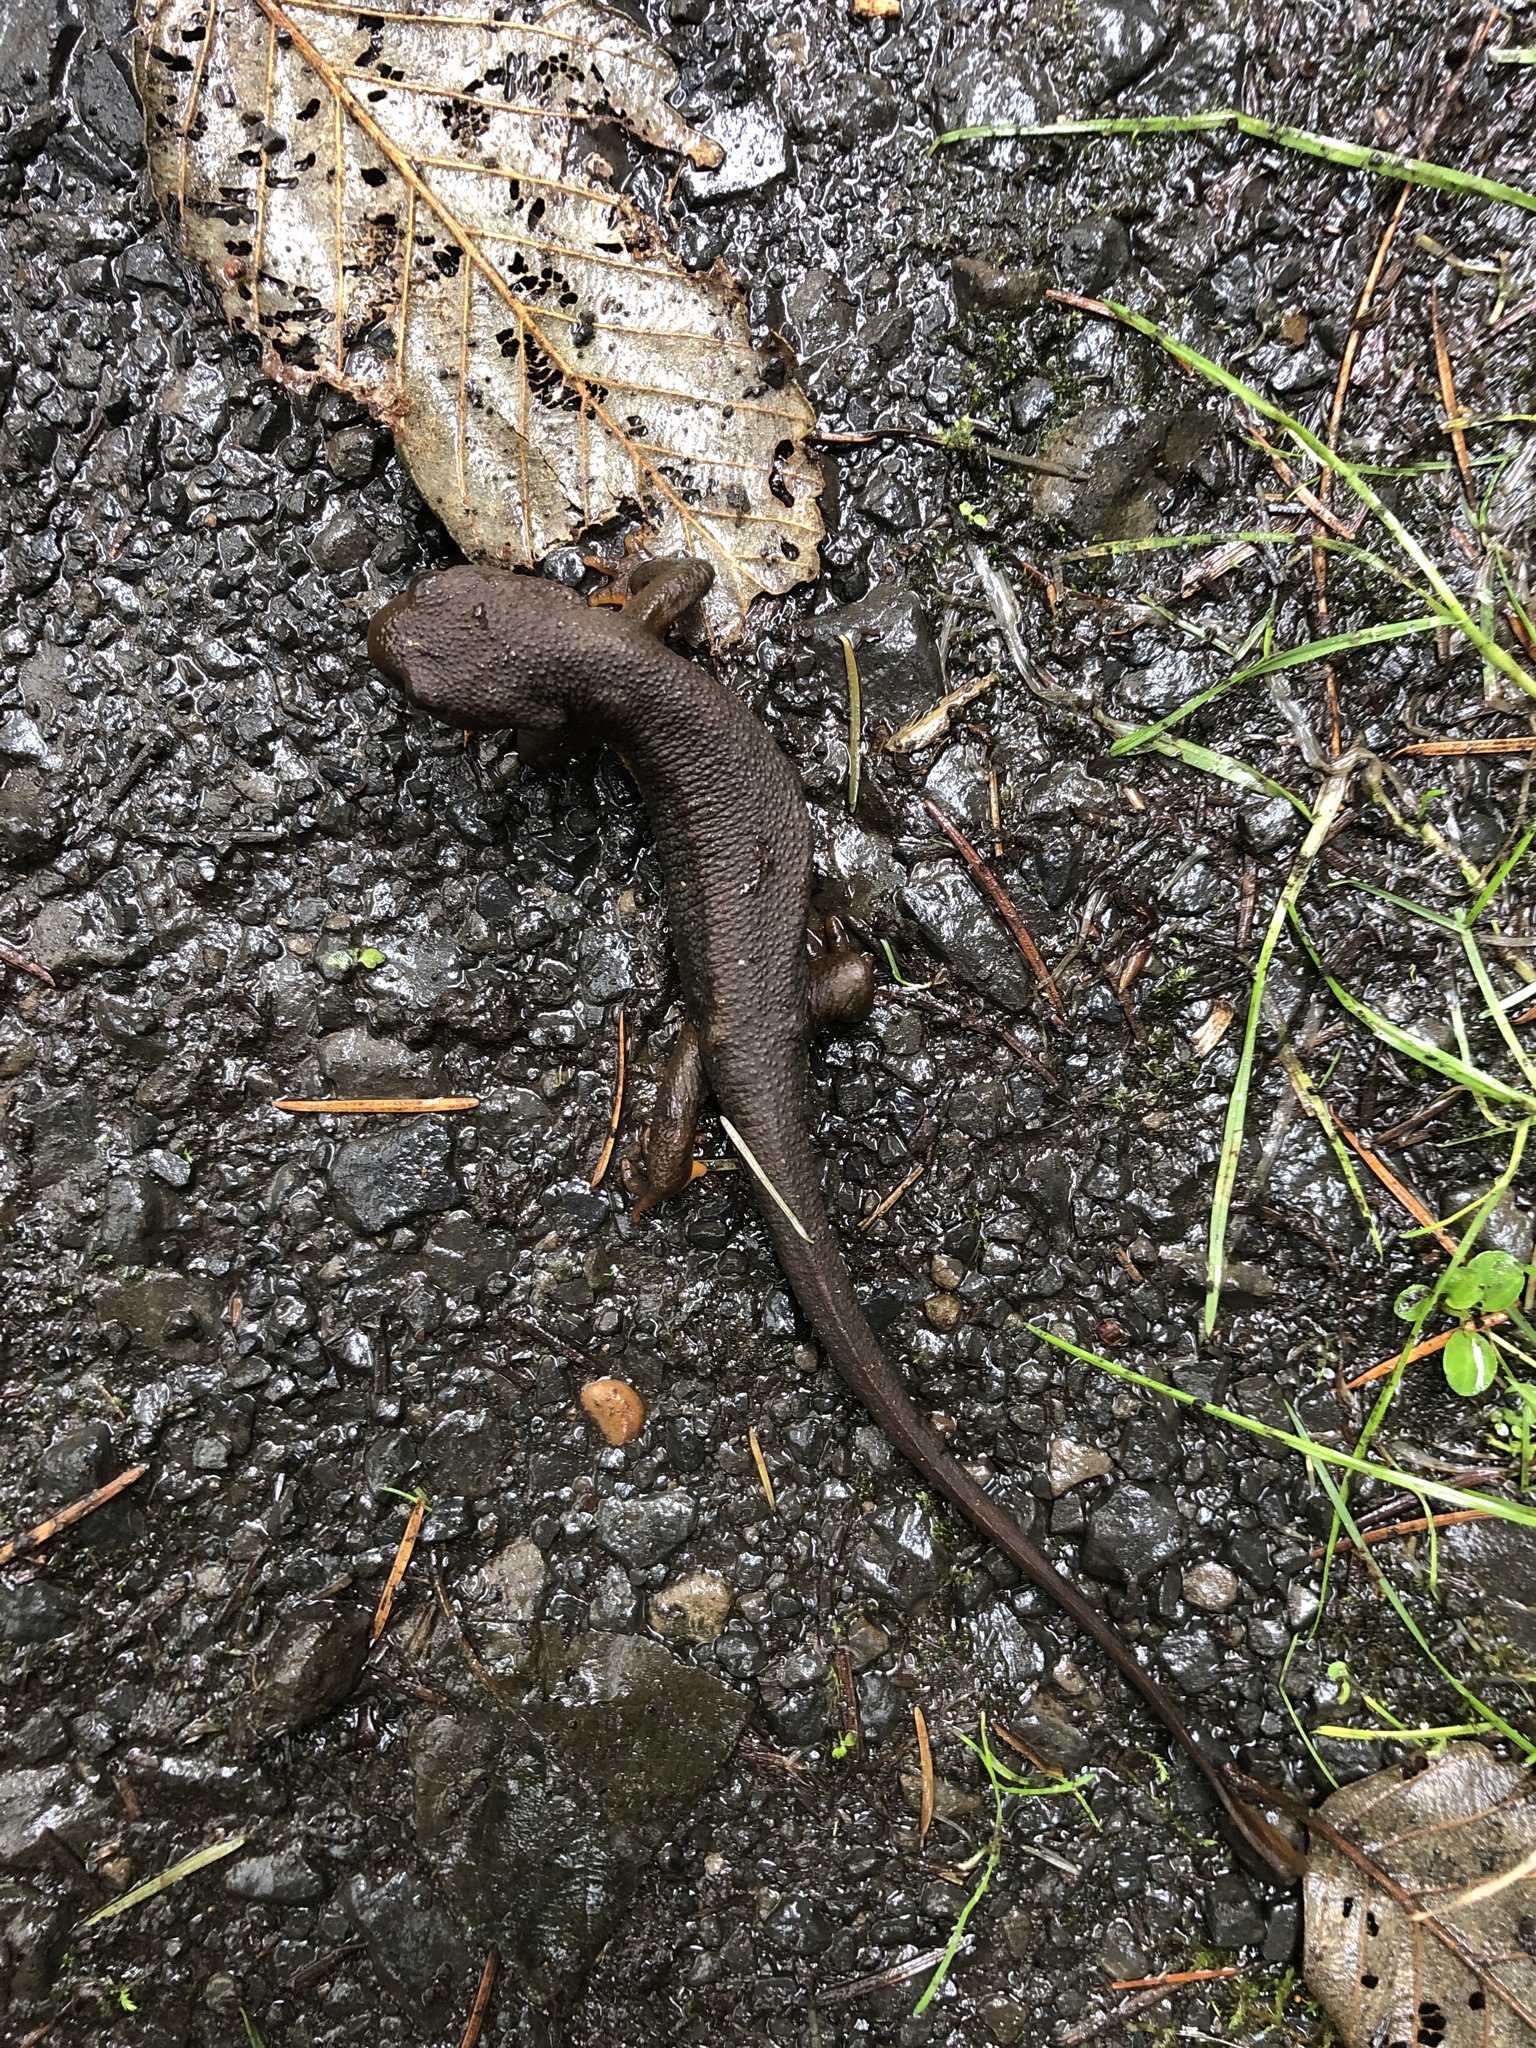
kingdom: Animalia
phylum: Chordata
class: Amphibia
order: Caudata
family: Salamandridae
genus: Taricha
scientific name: Taricha granulosa
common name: Roughskin newt
